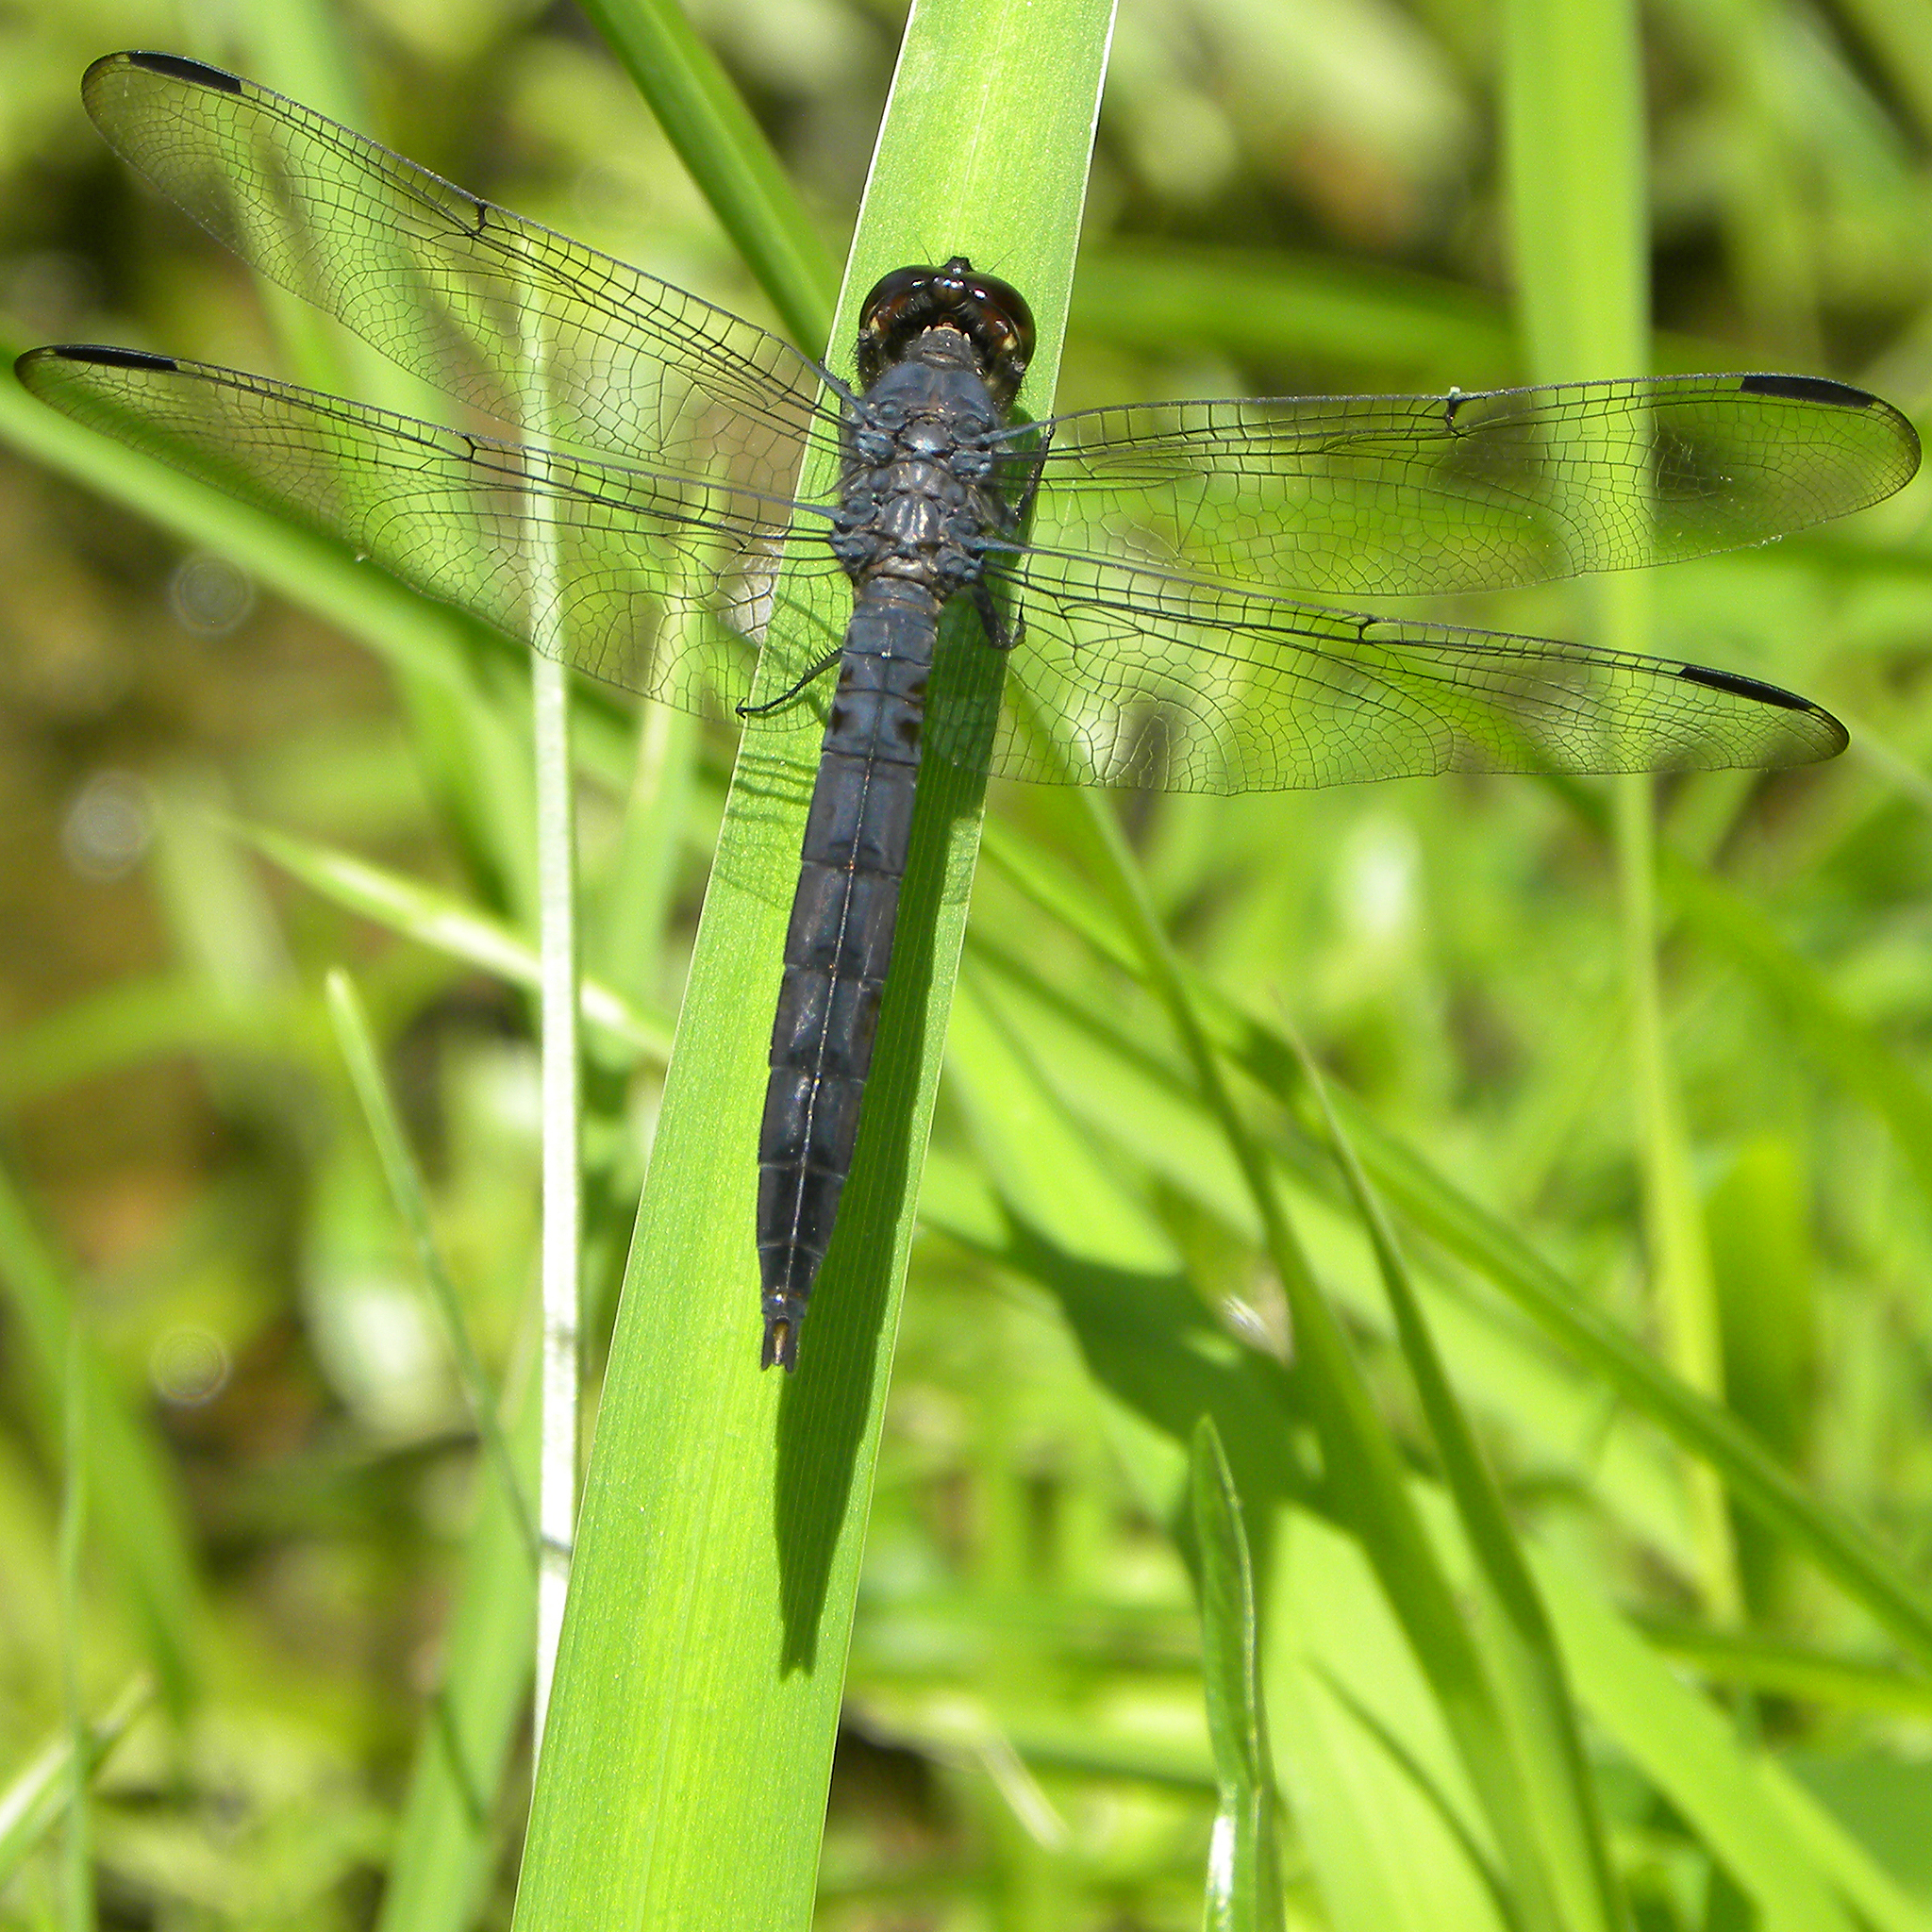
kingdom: Animalia
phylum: Arthropoda
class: Insecta
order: Odonata
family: Libellulidae
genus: Libellula
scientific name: Libellula incesta
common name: Slaty skimmer
